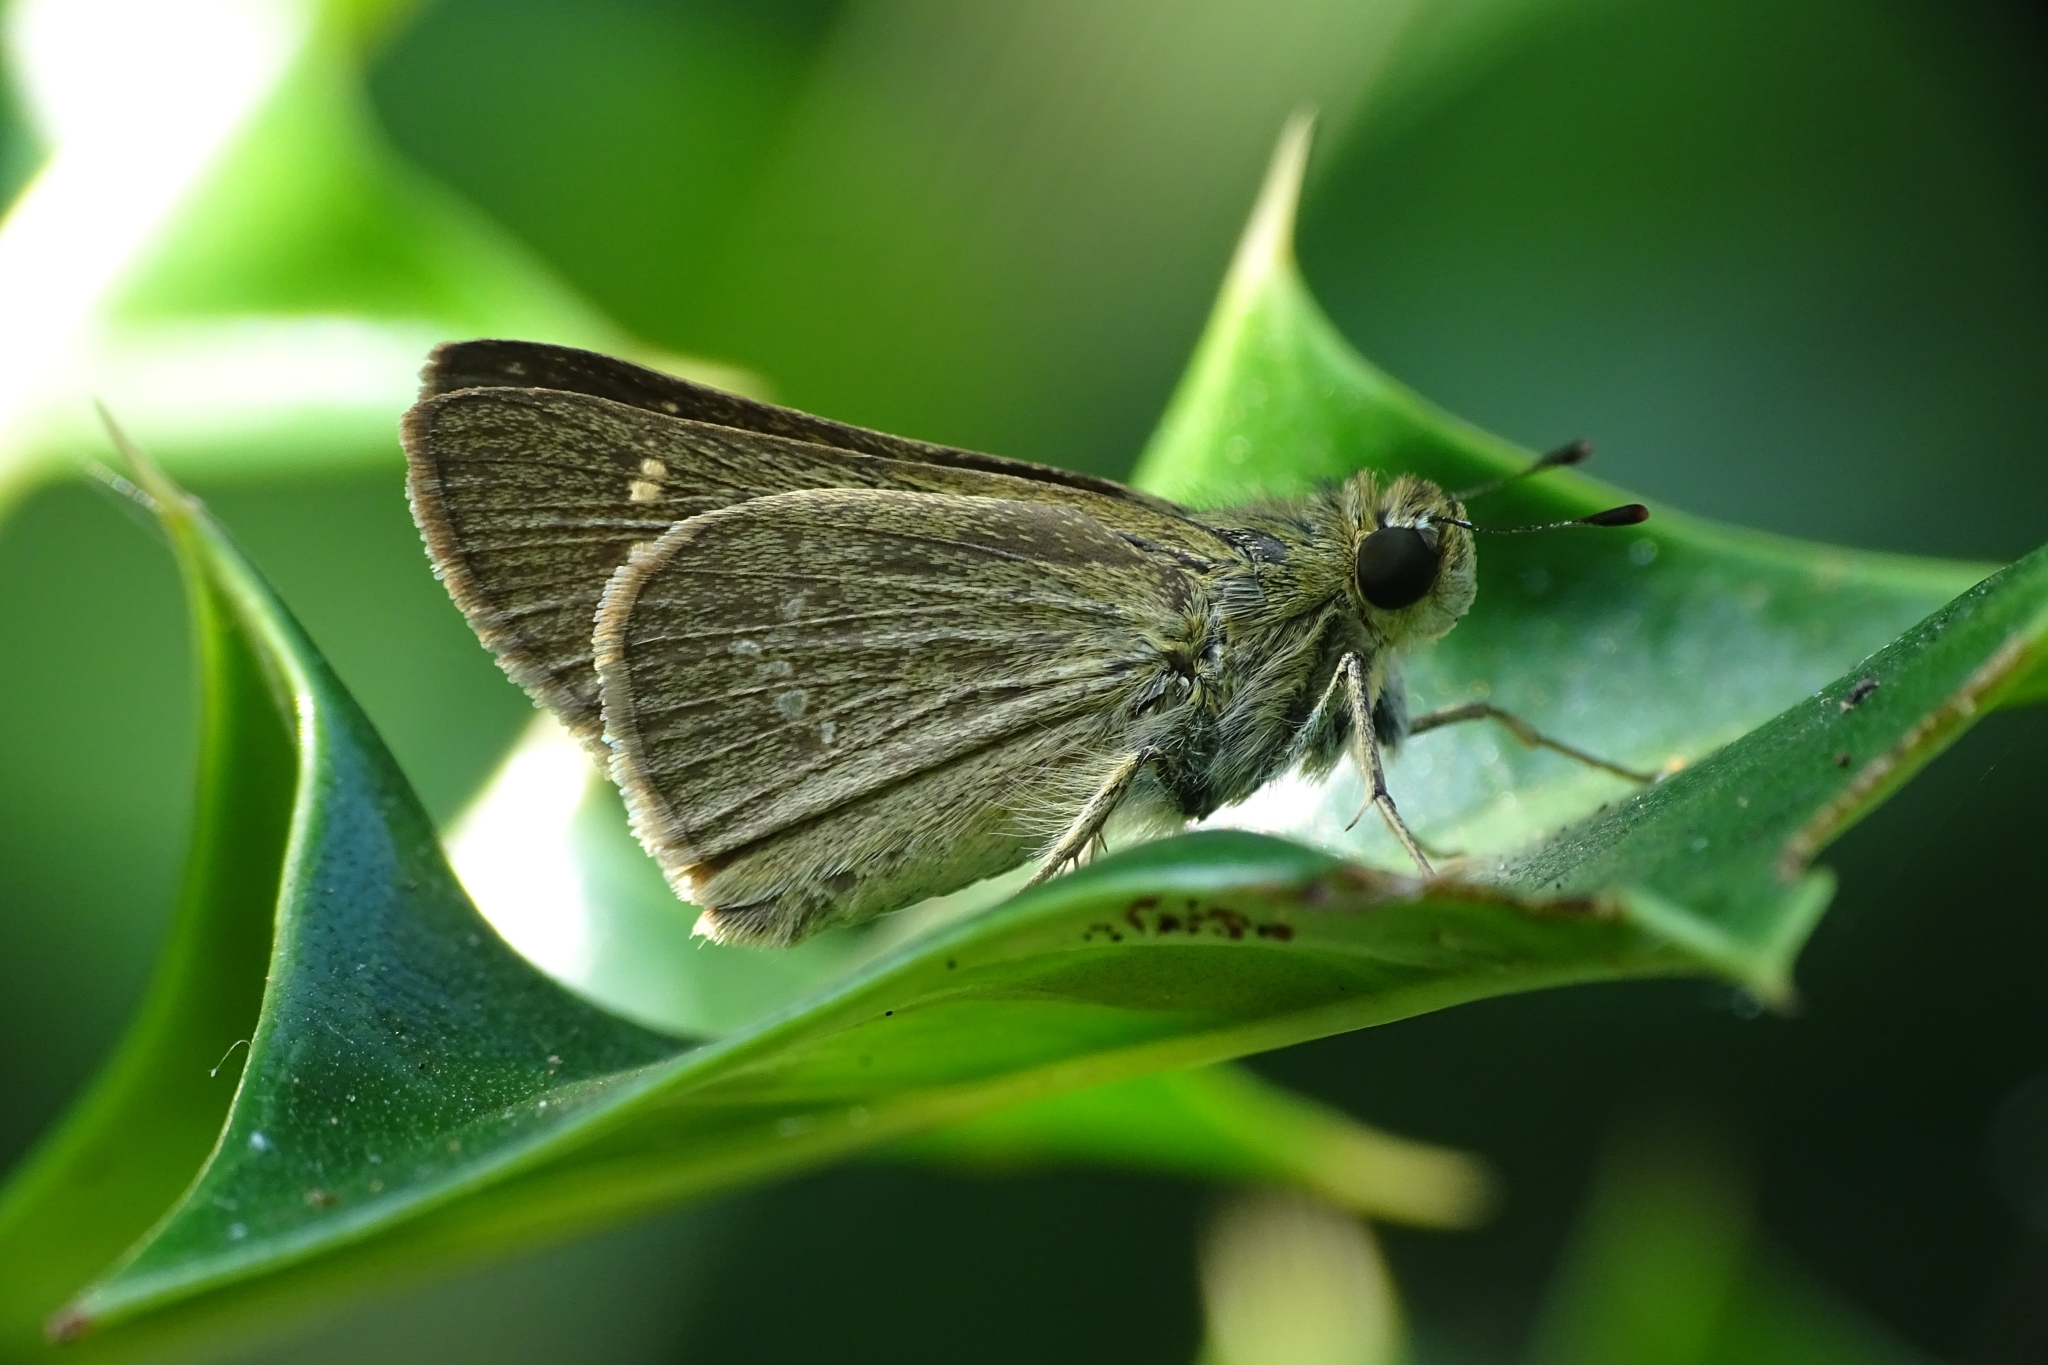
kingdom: Animalia
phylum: Arthropoda
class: Insecta
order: Lepidoptera
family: Hesperiidae
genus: Parnara
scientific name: Parnara naso
